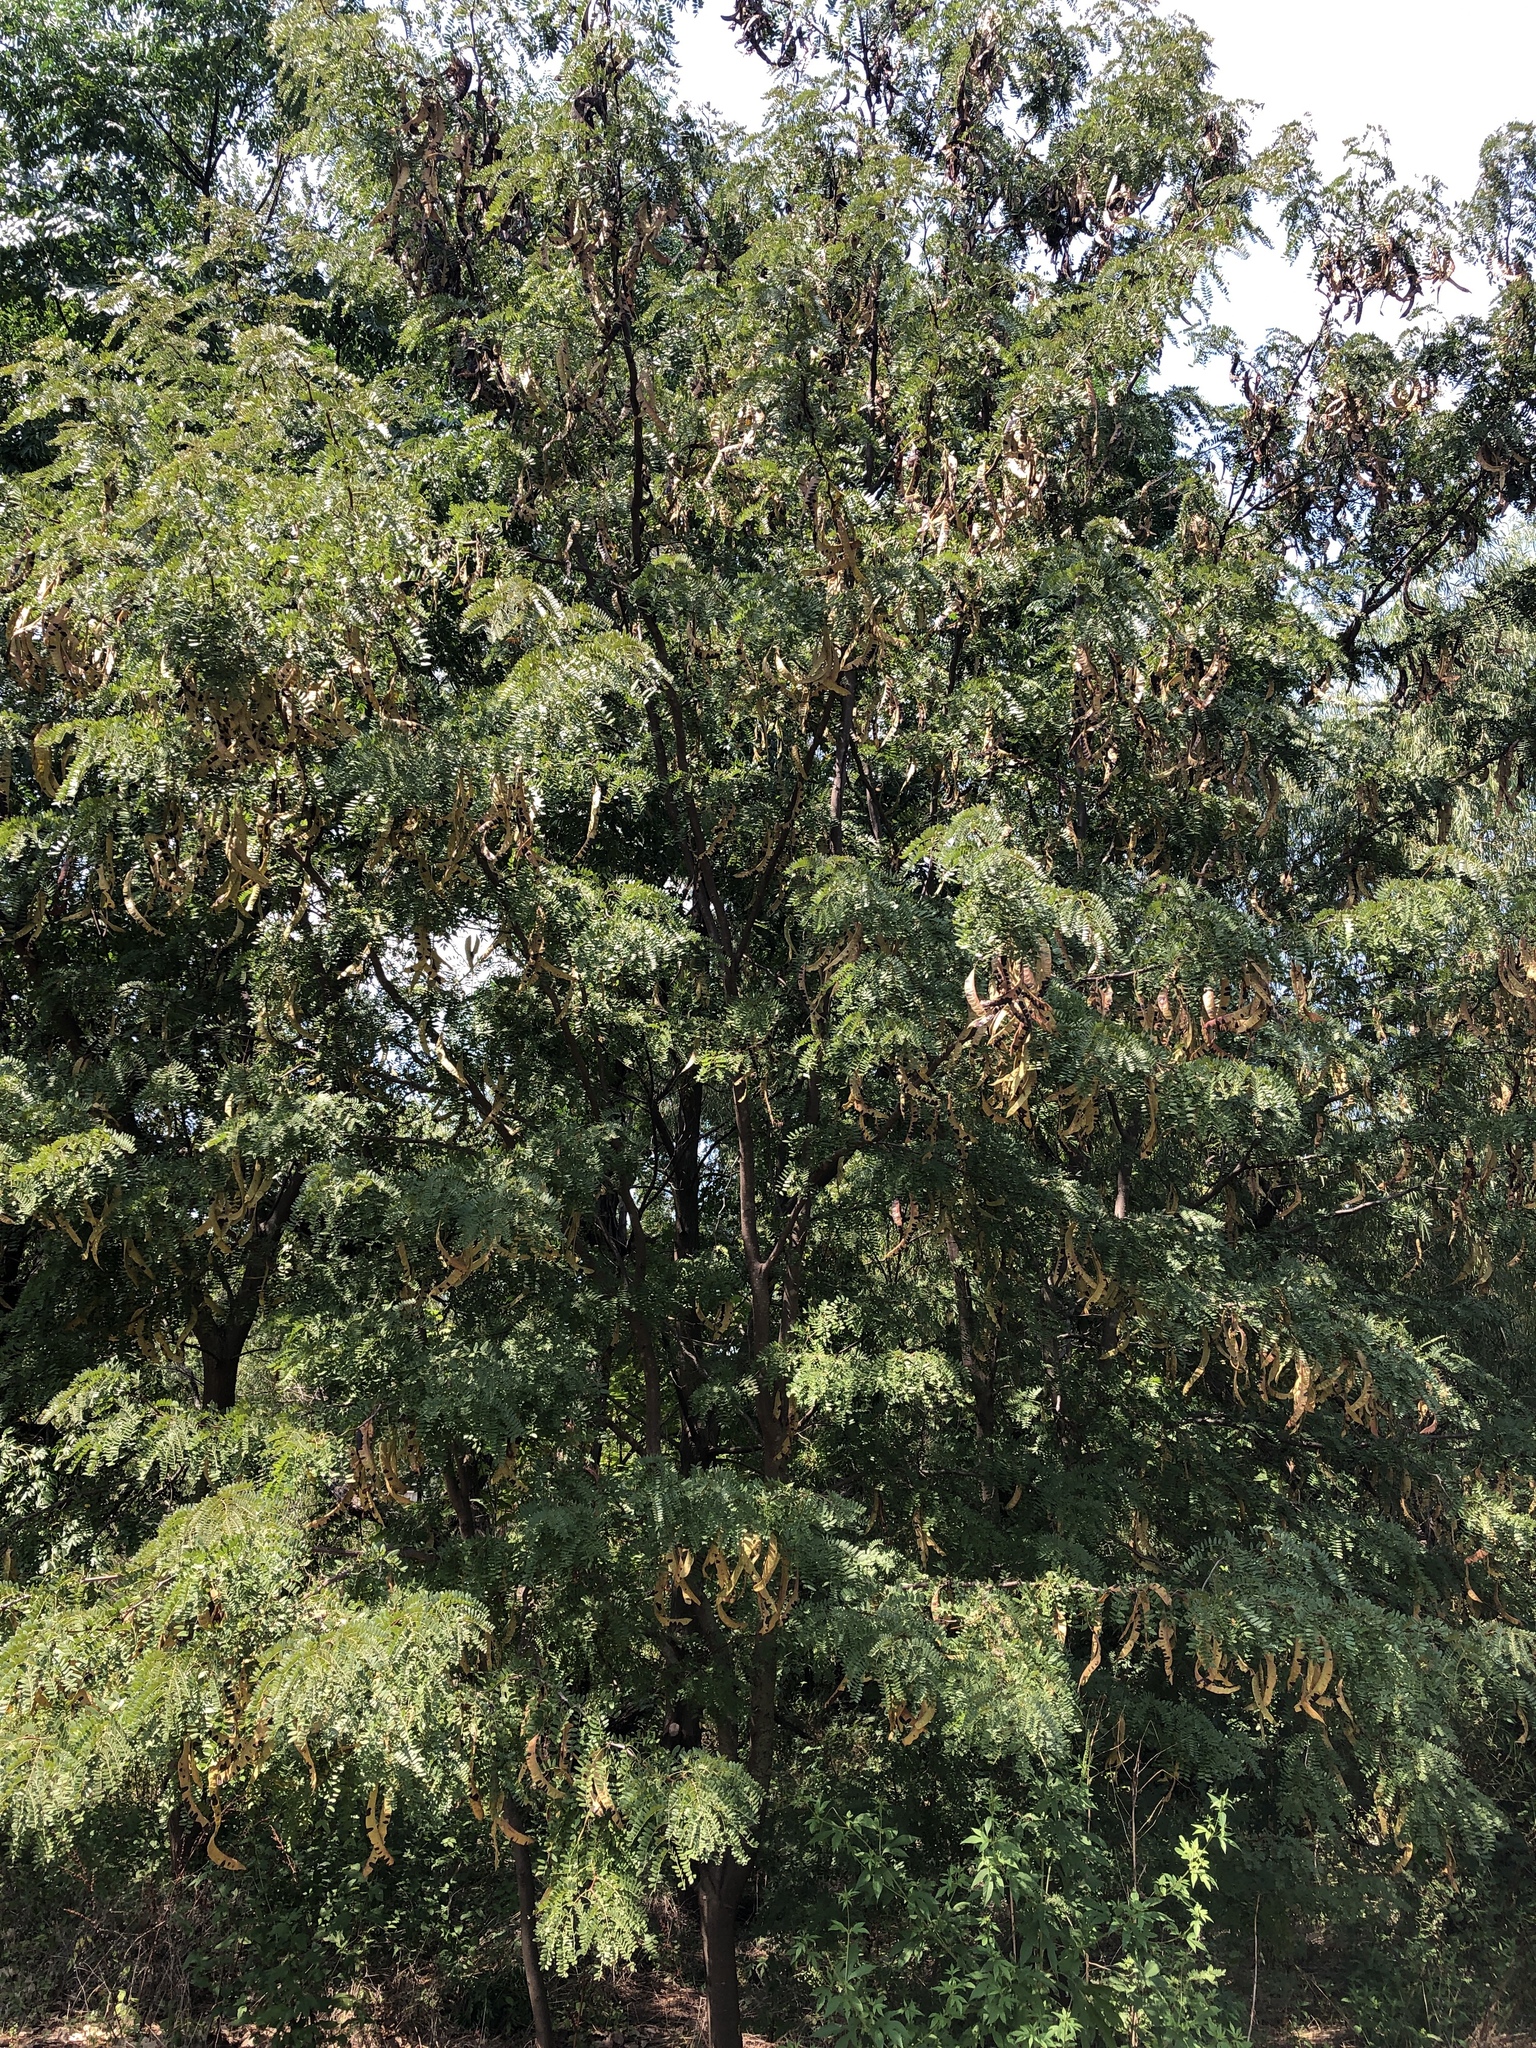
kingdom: Plantae
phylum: Tracheophyta
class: Magnoliopsida
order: Fabales
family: Fabaceae
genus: Gleditsia
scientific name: Gleditsia triacanthos
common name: Common honeylocust
